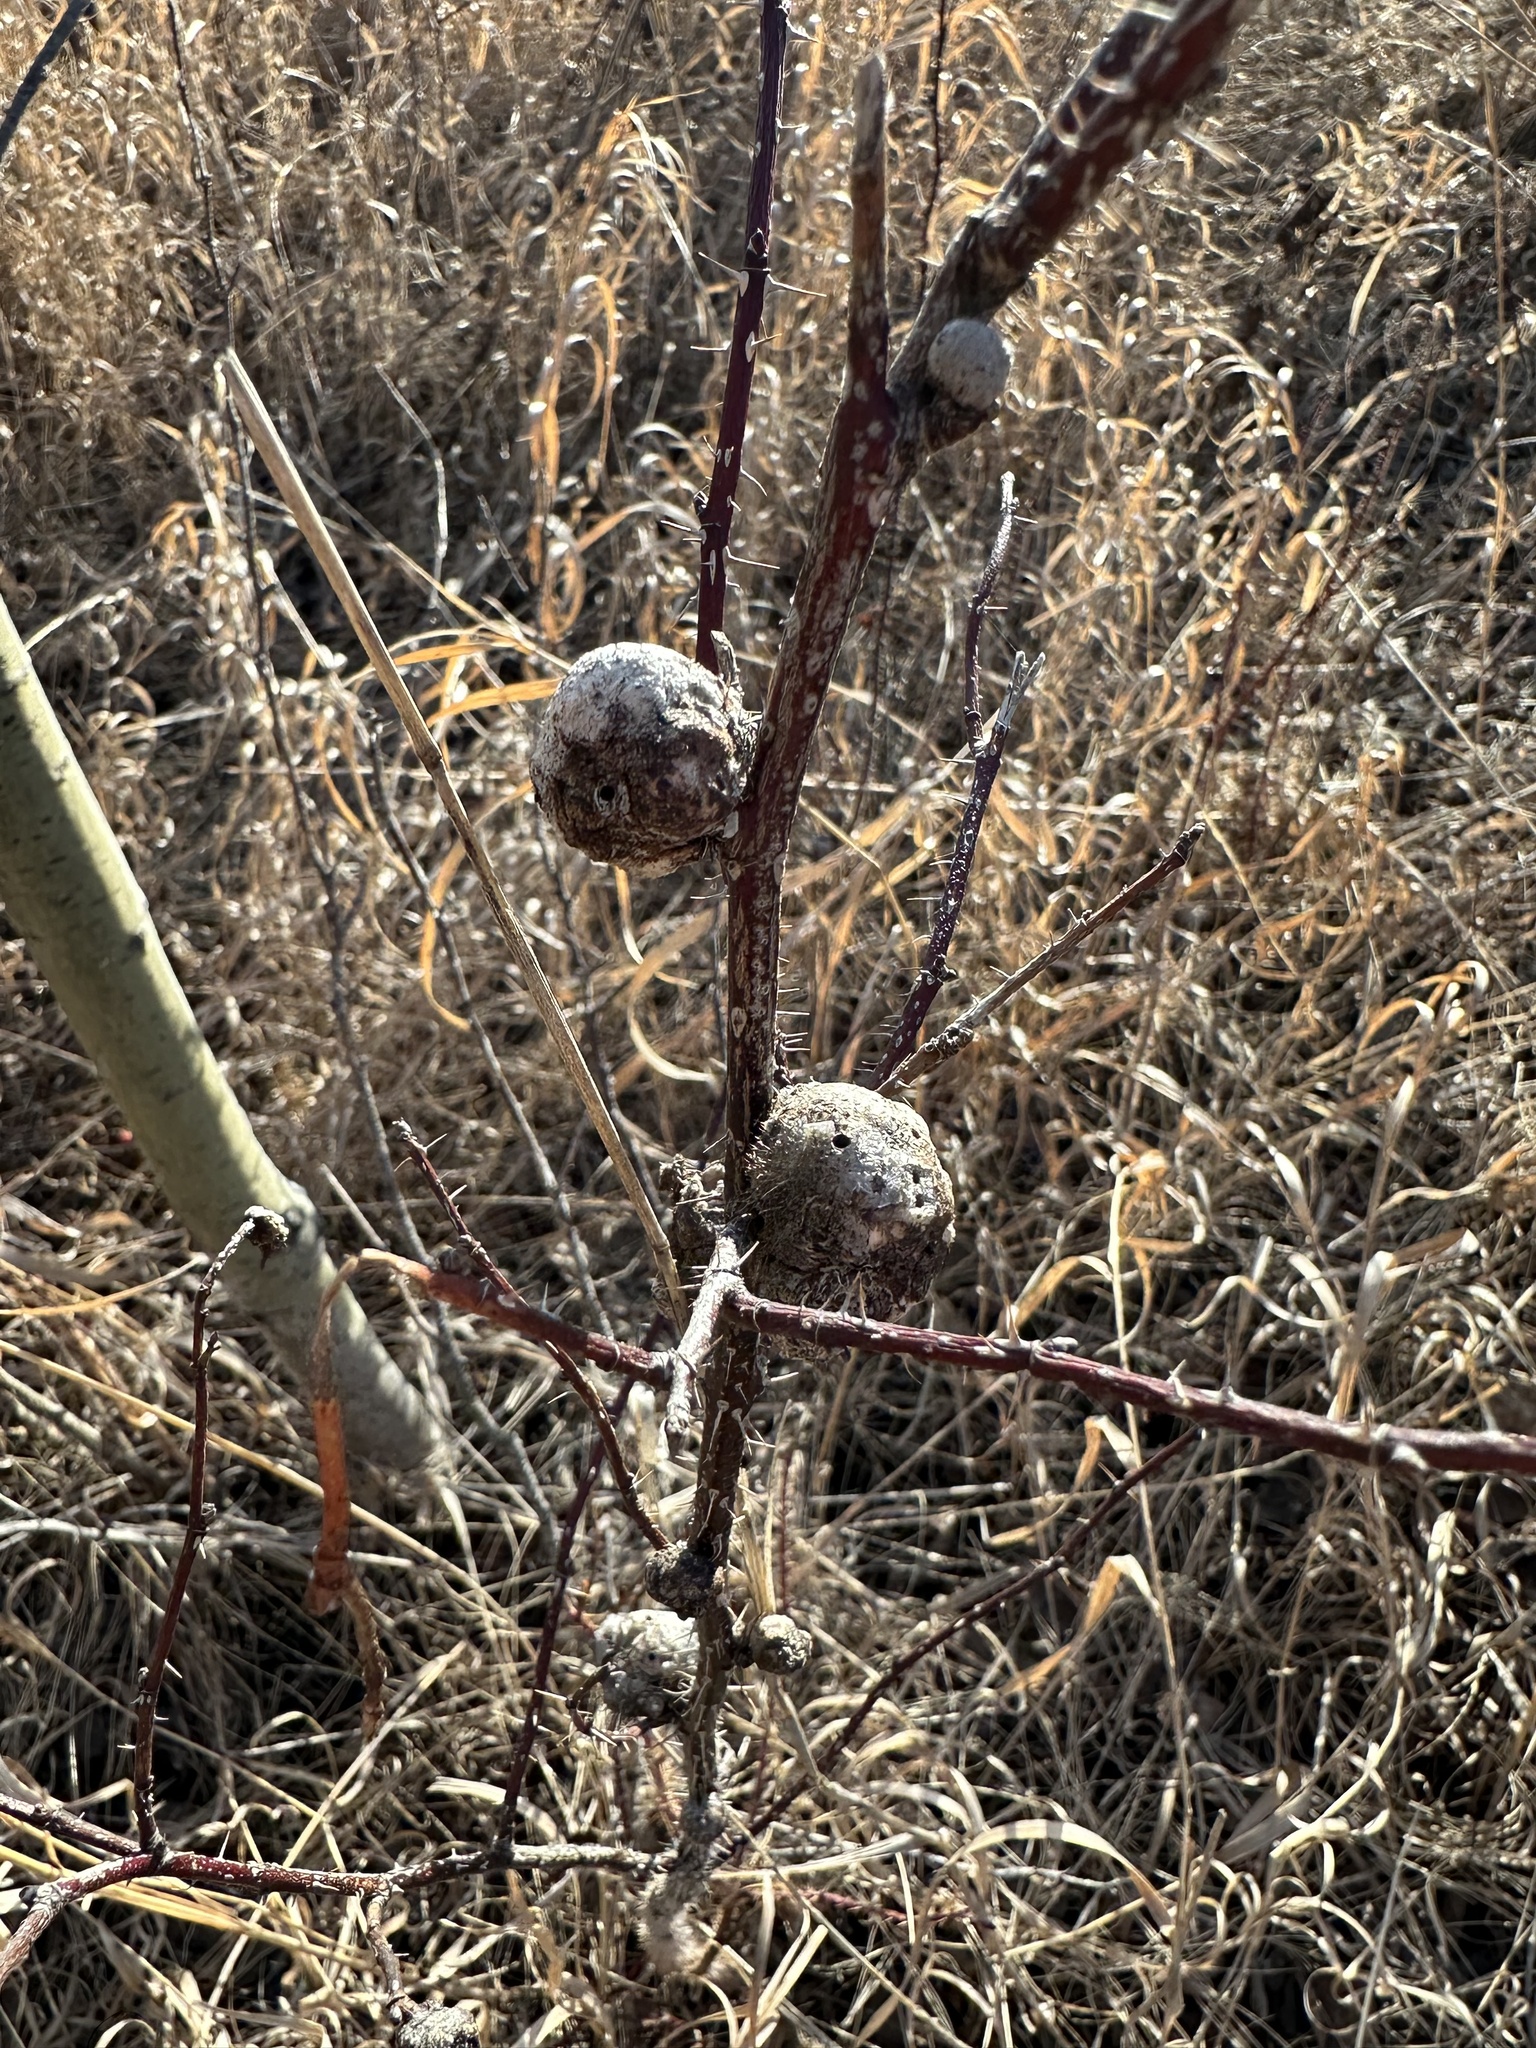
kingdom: Animalia
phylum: Arthropoda
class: Insecta
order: Hymenoptera
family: Cynipidae
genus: Diplolepis
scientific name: Diplolepis spinosa
